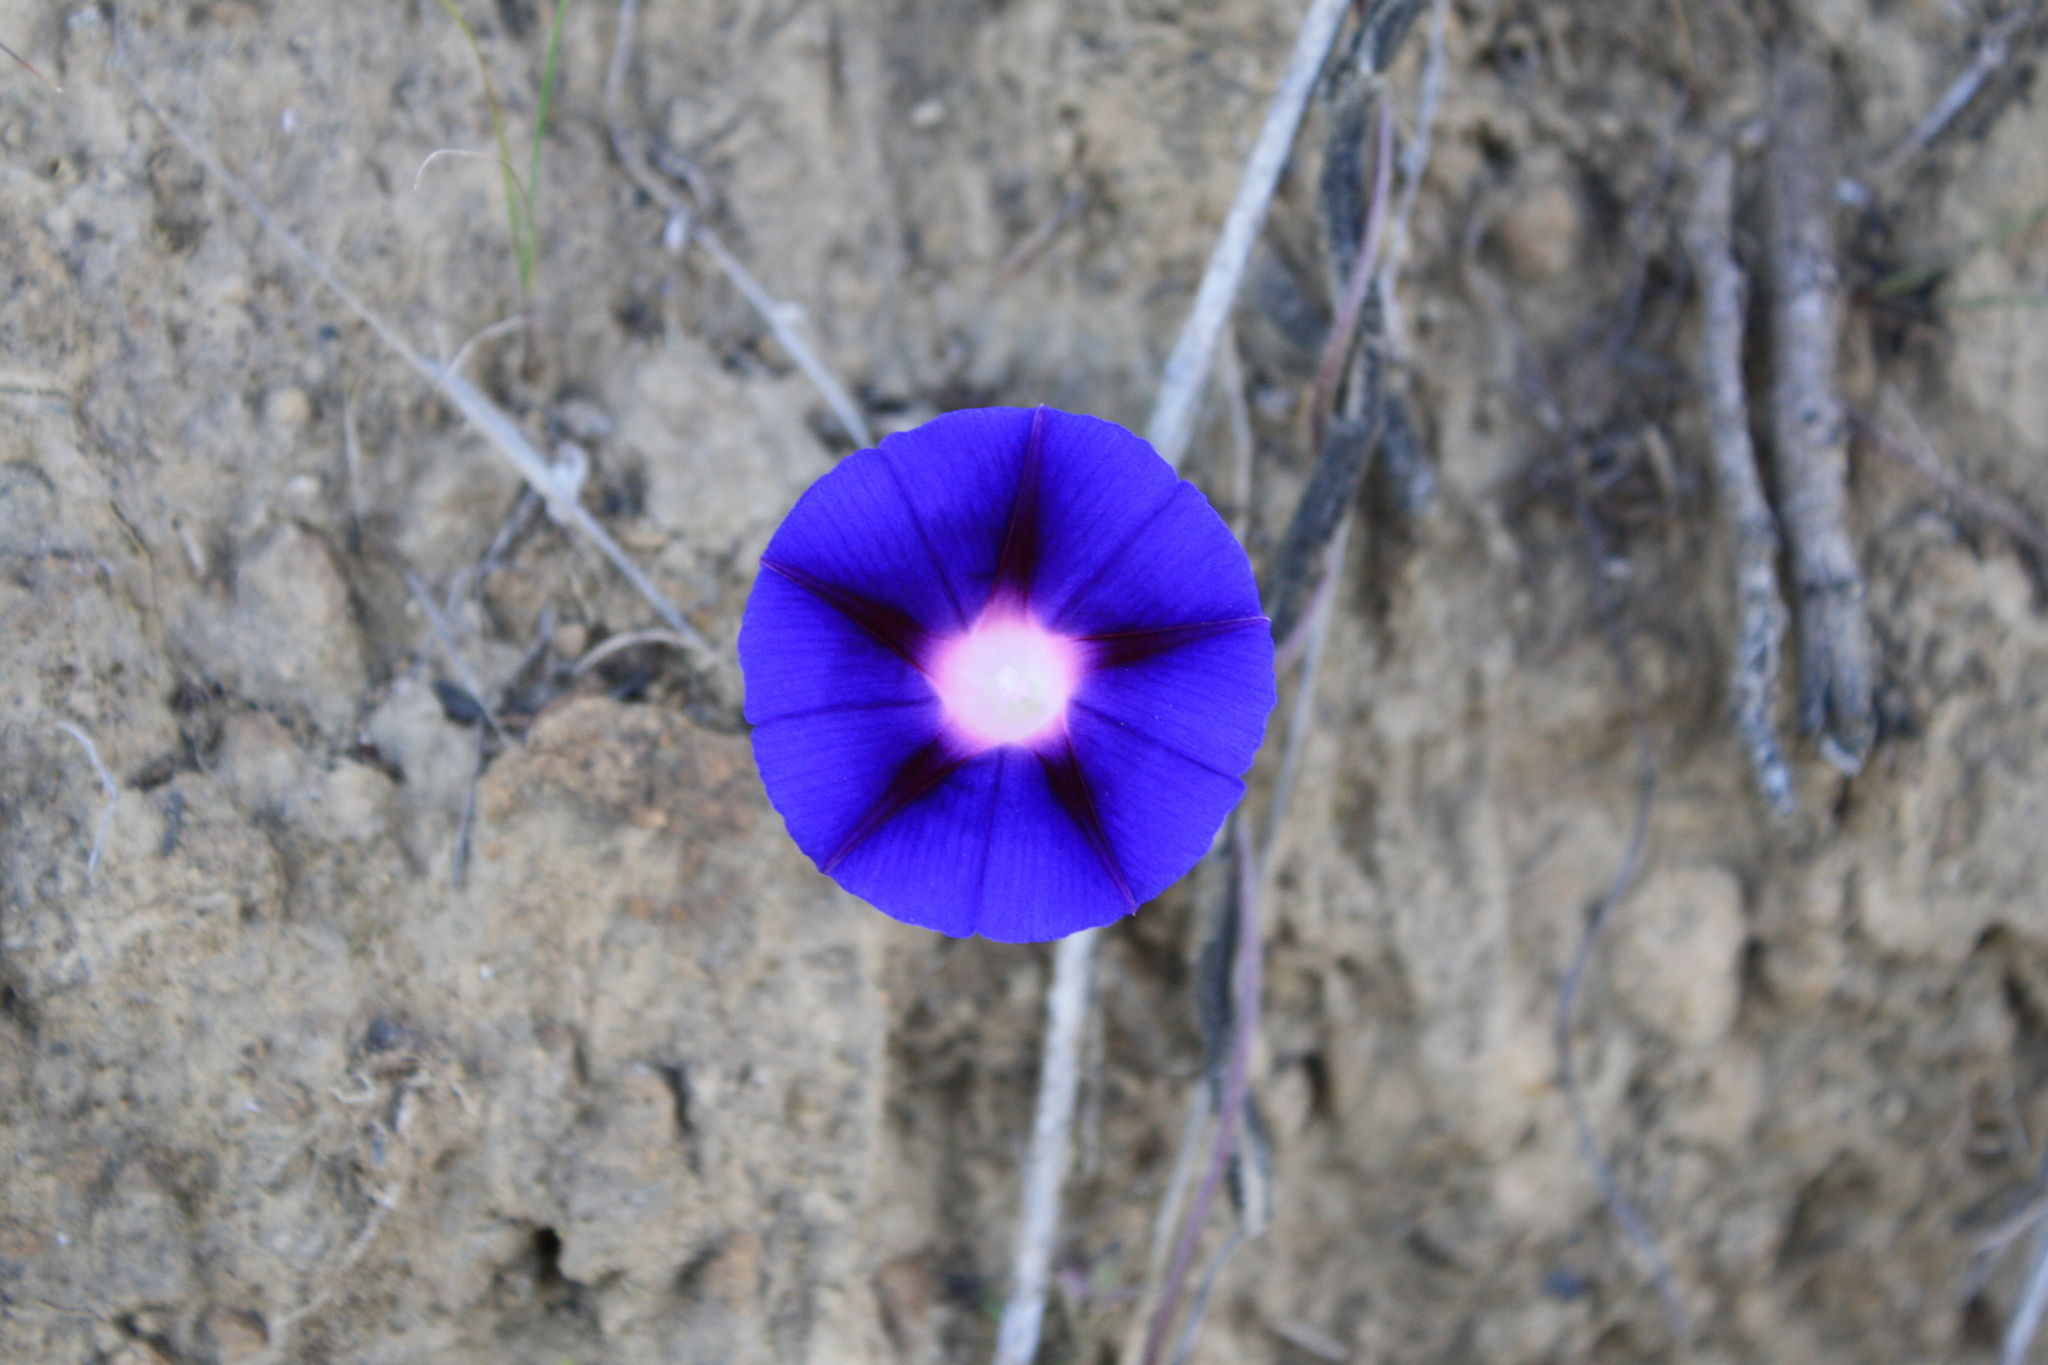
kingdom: Plantae
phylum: Tracheophyta
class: Magnoliopsida
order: Solanales
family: Convolvulaceae
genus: Ipomoea
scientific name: Ipomoea purpurea
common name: Common morning-glory
